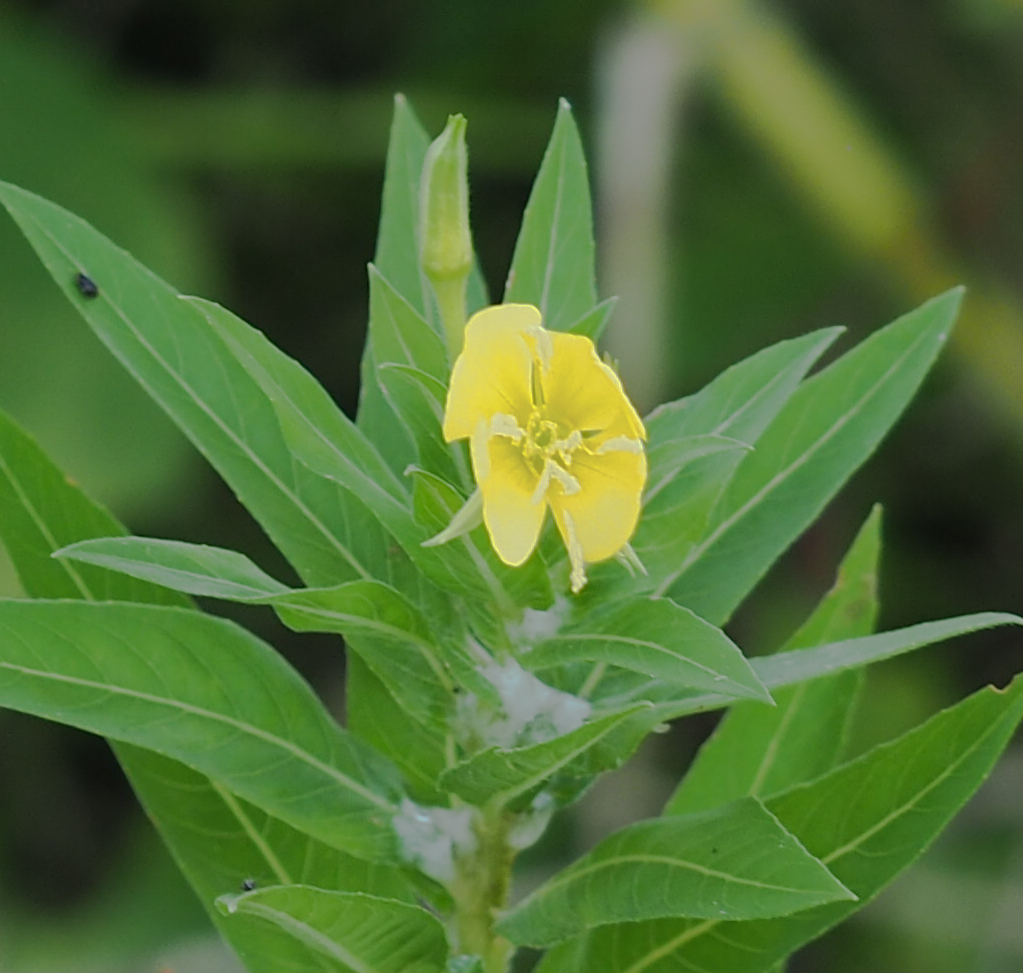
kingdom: Plantae
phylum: Tracheophyta
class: Magnoliopsida
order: Myrtales
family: Onagraceae
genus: Oenothera
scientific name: Oenothera biennis
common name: Common evening-primrose
